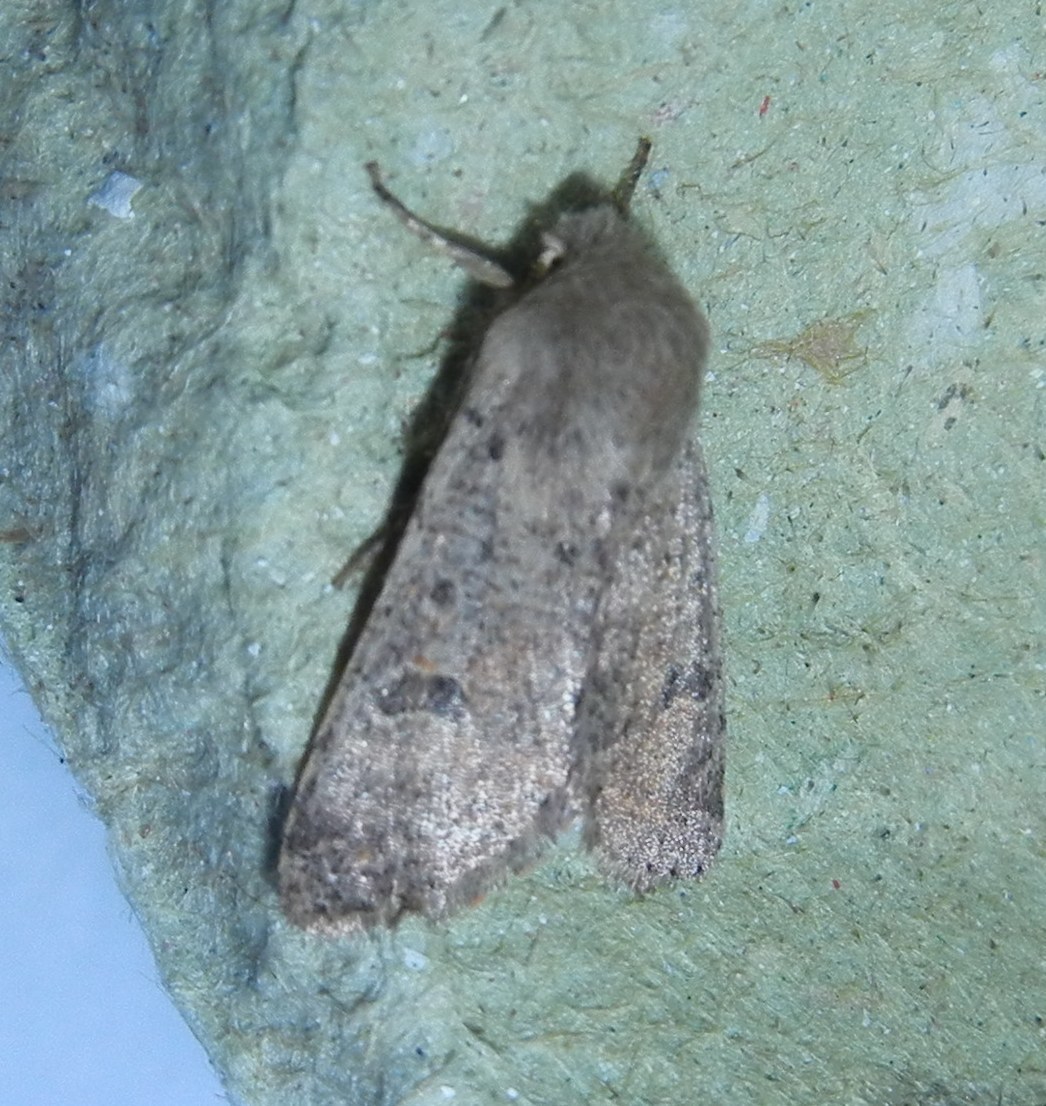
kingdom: Animalia
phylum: Arthropoda
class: Insecta
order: Lepidoptera
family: Noctuidae
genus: Orthosia
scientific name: Orthosia cruda
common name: Small quaker
